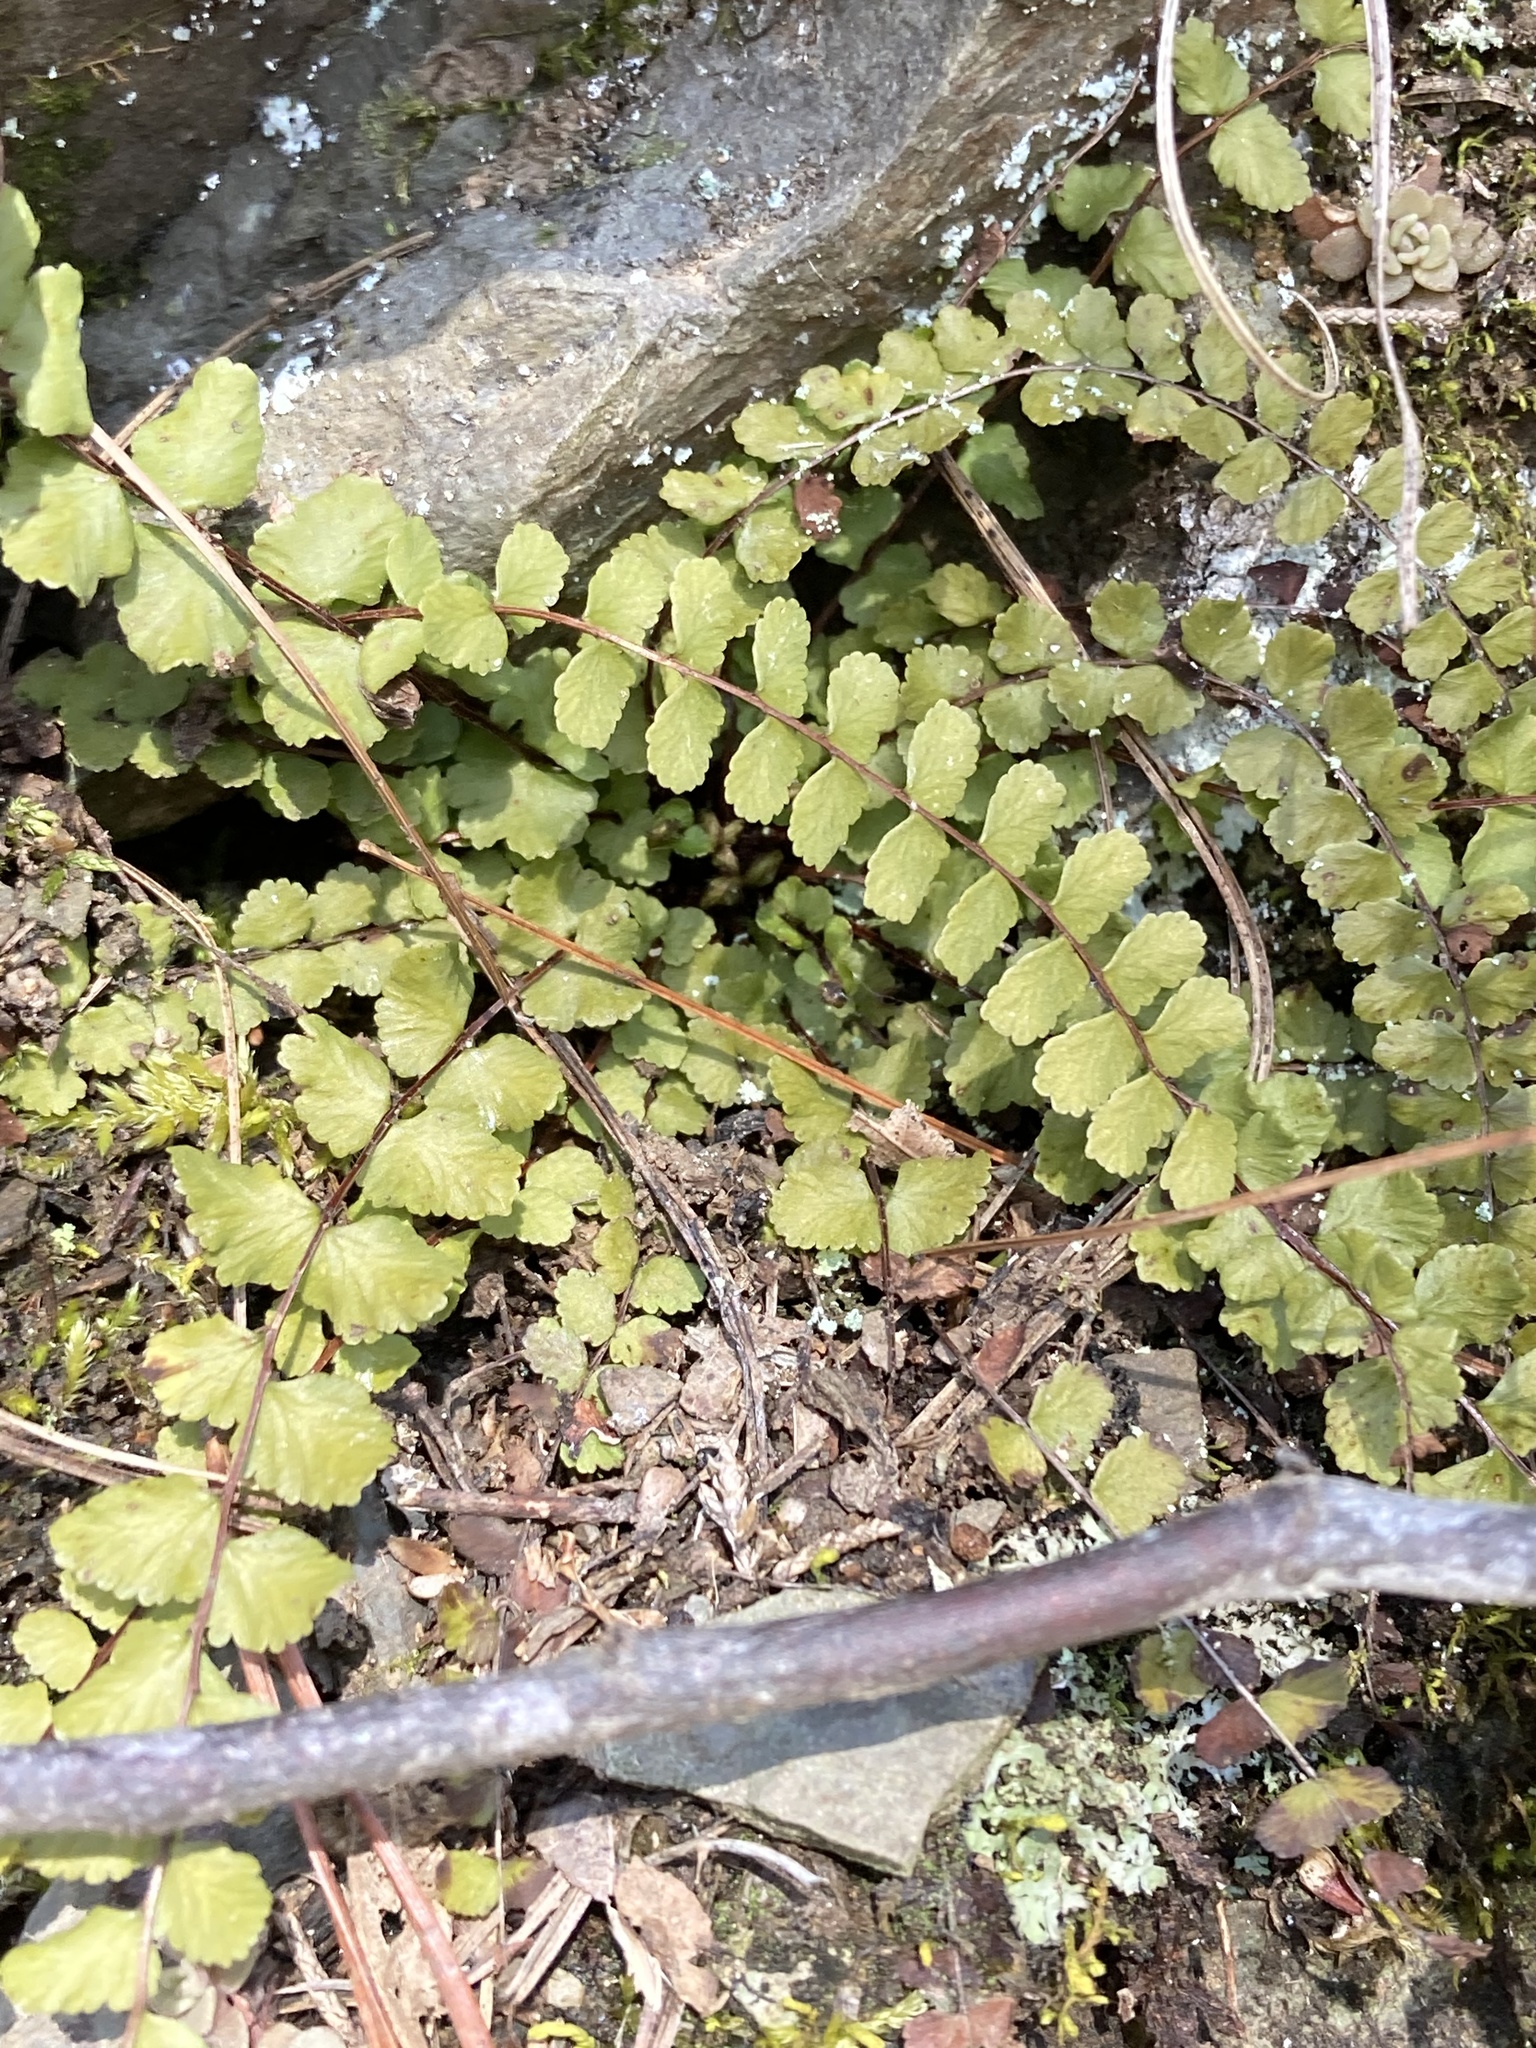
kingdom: Plantae
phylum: Tracheophyta
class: Polypodiopsida
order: Polypodiales
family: Aspleniaceae
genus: Asplenium
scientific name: Asplenium trichomanes
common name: Maidenhair spleenwort
